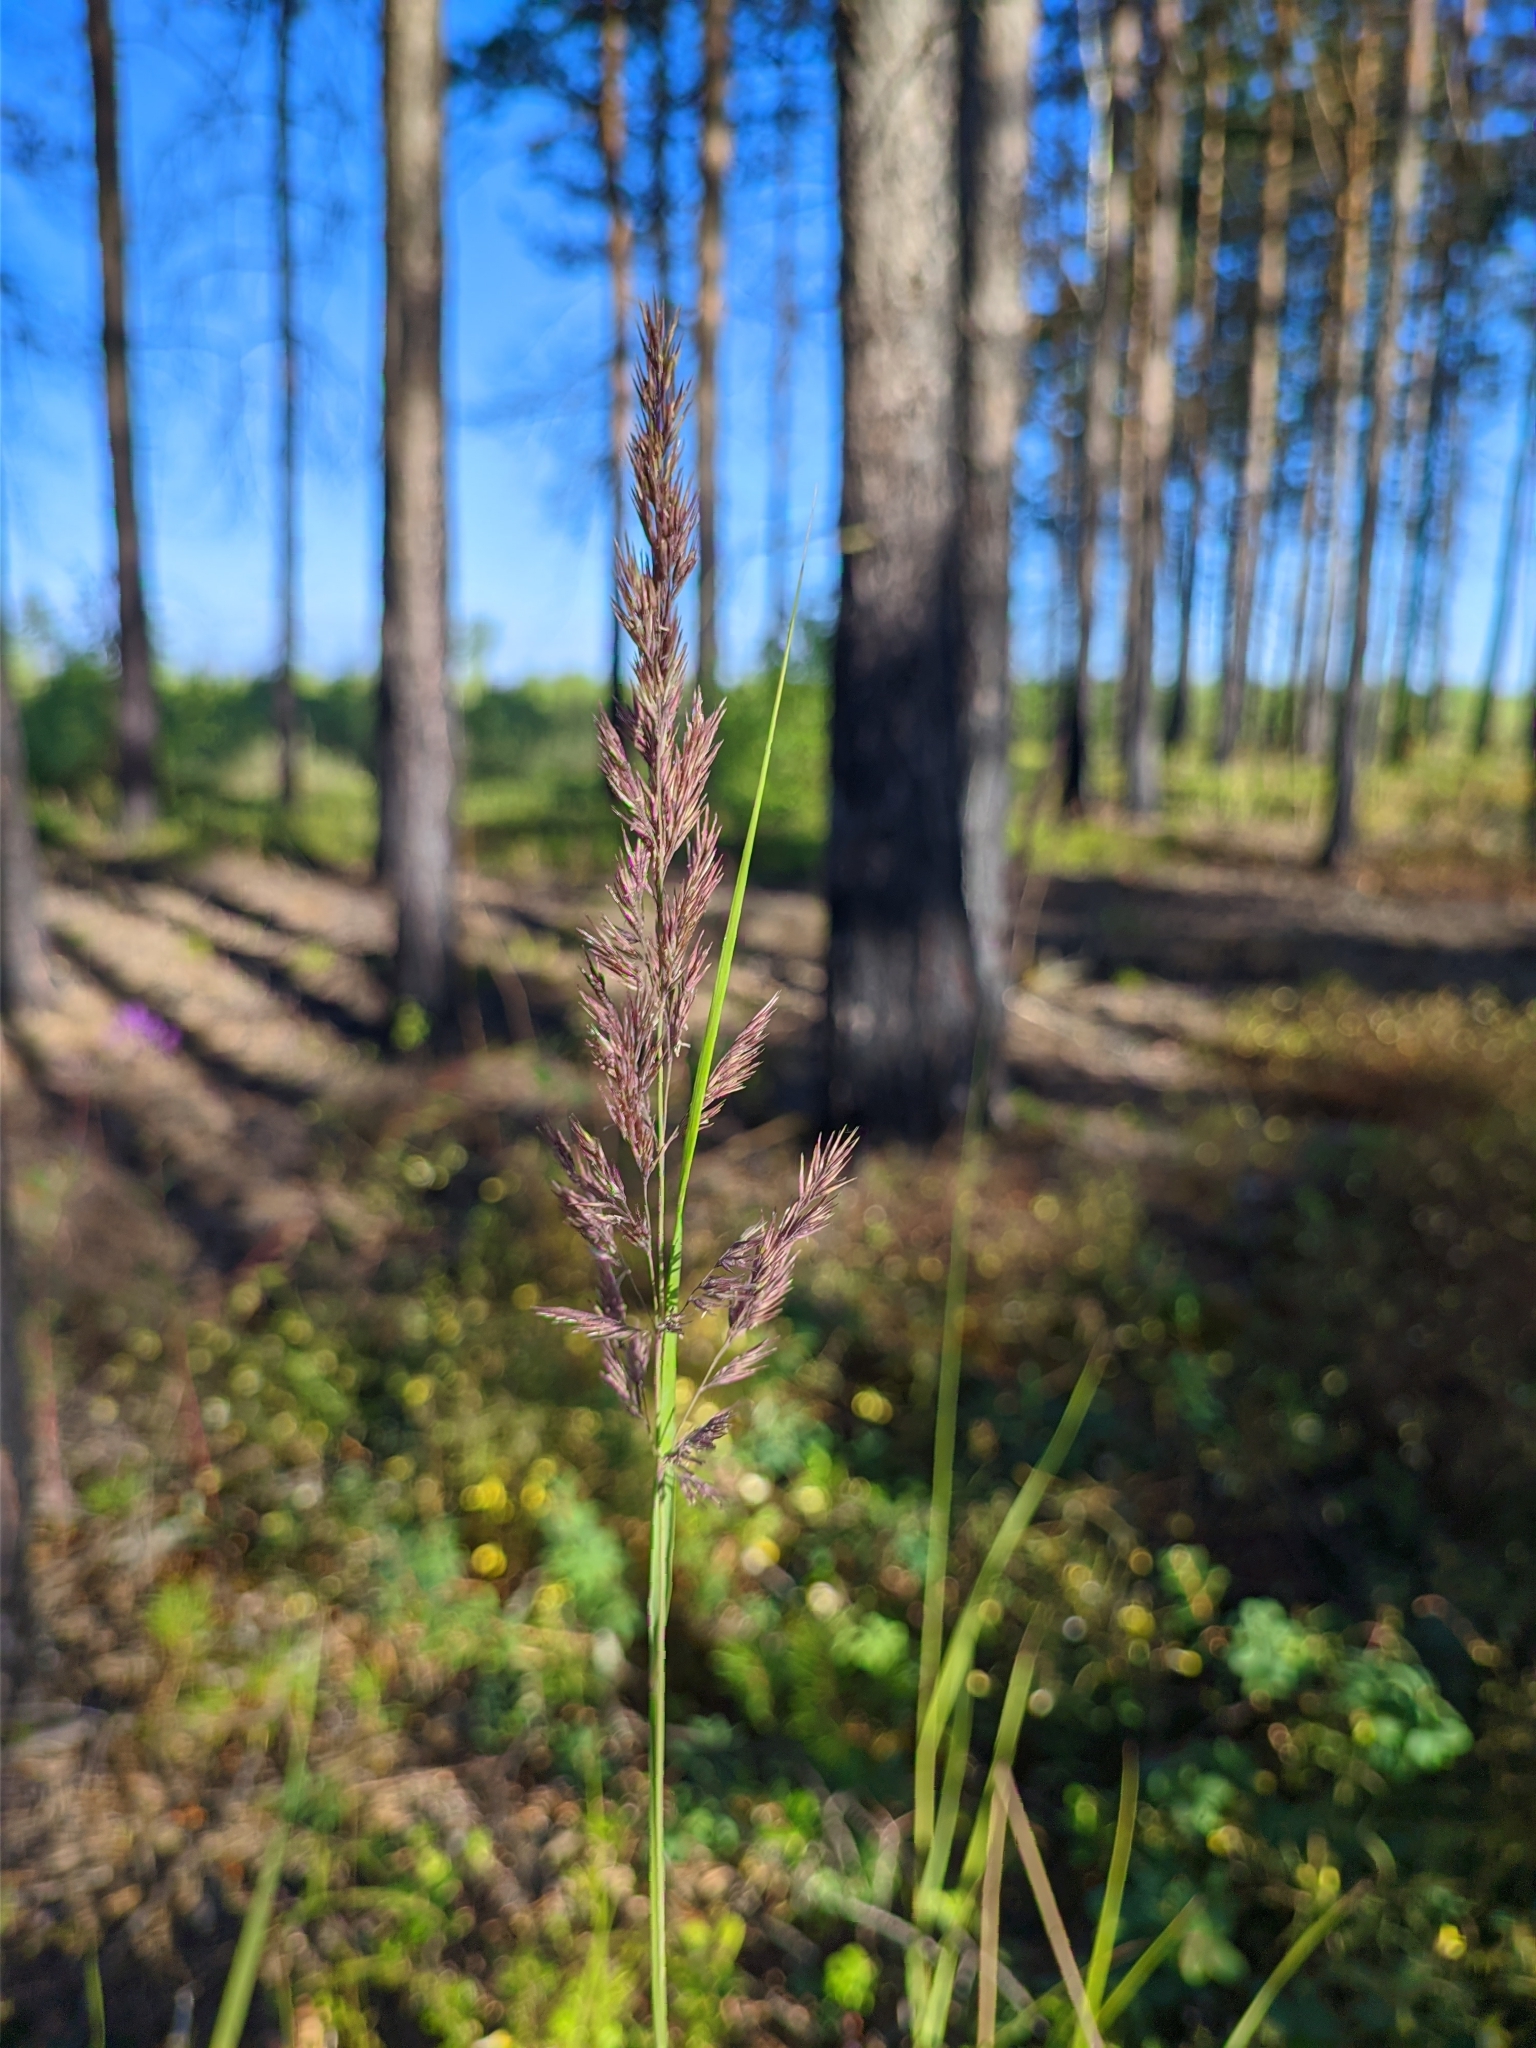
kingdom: Plantae
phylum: Tracheophyta
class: Liliopsida
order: Poales
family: Poaceae
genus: Calamagrostis
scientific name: Calamagrostis epigejos
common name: Wood small-reed
